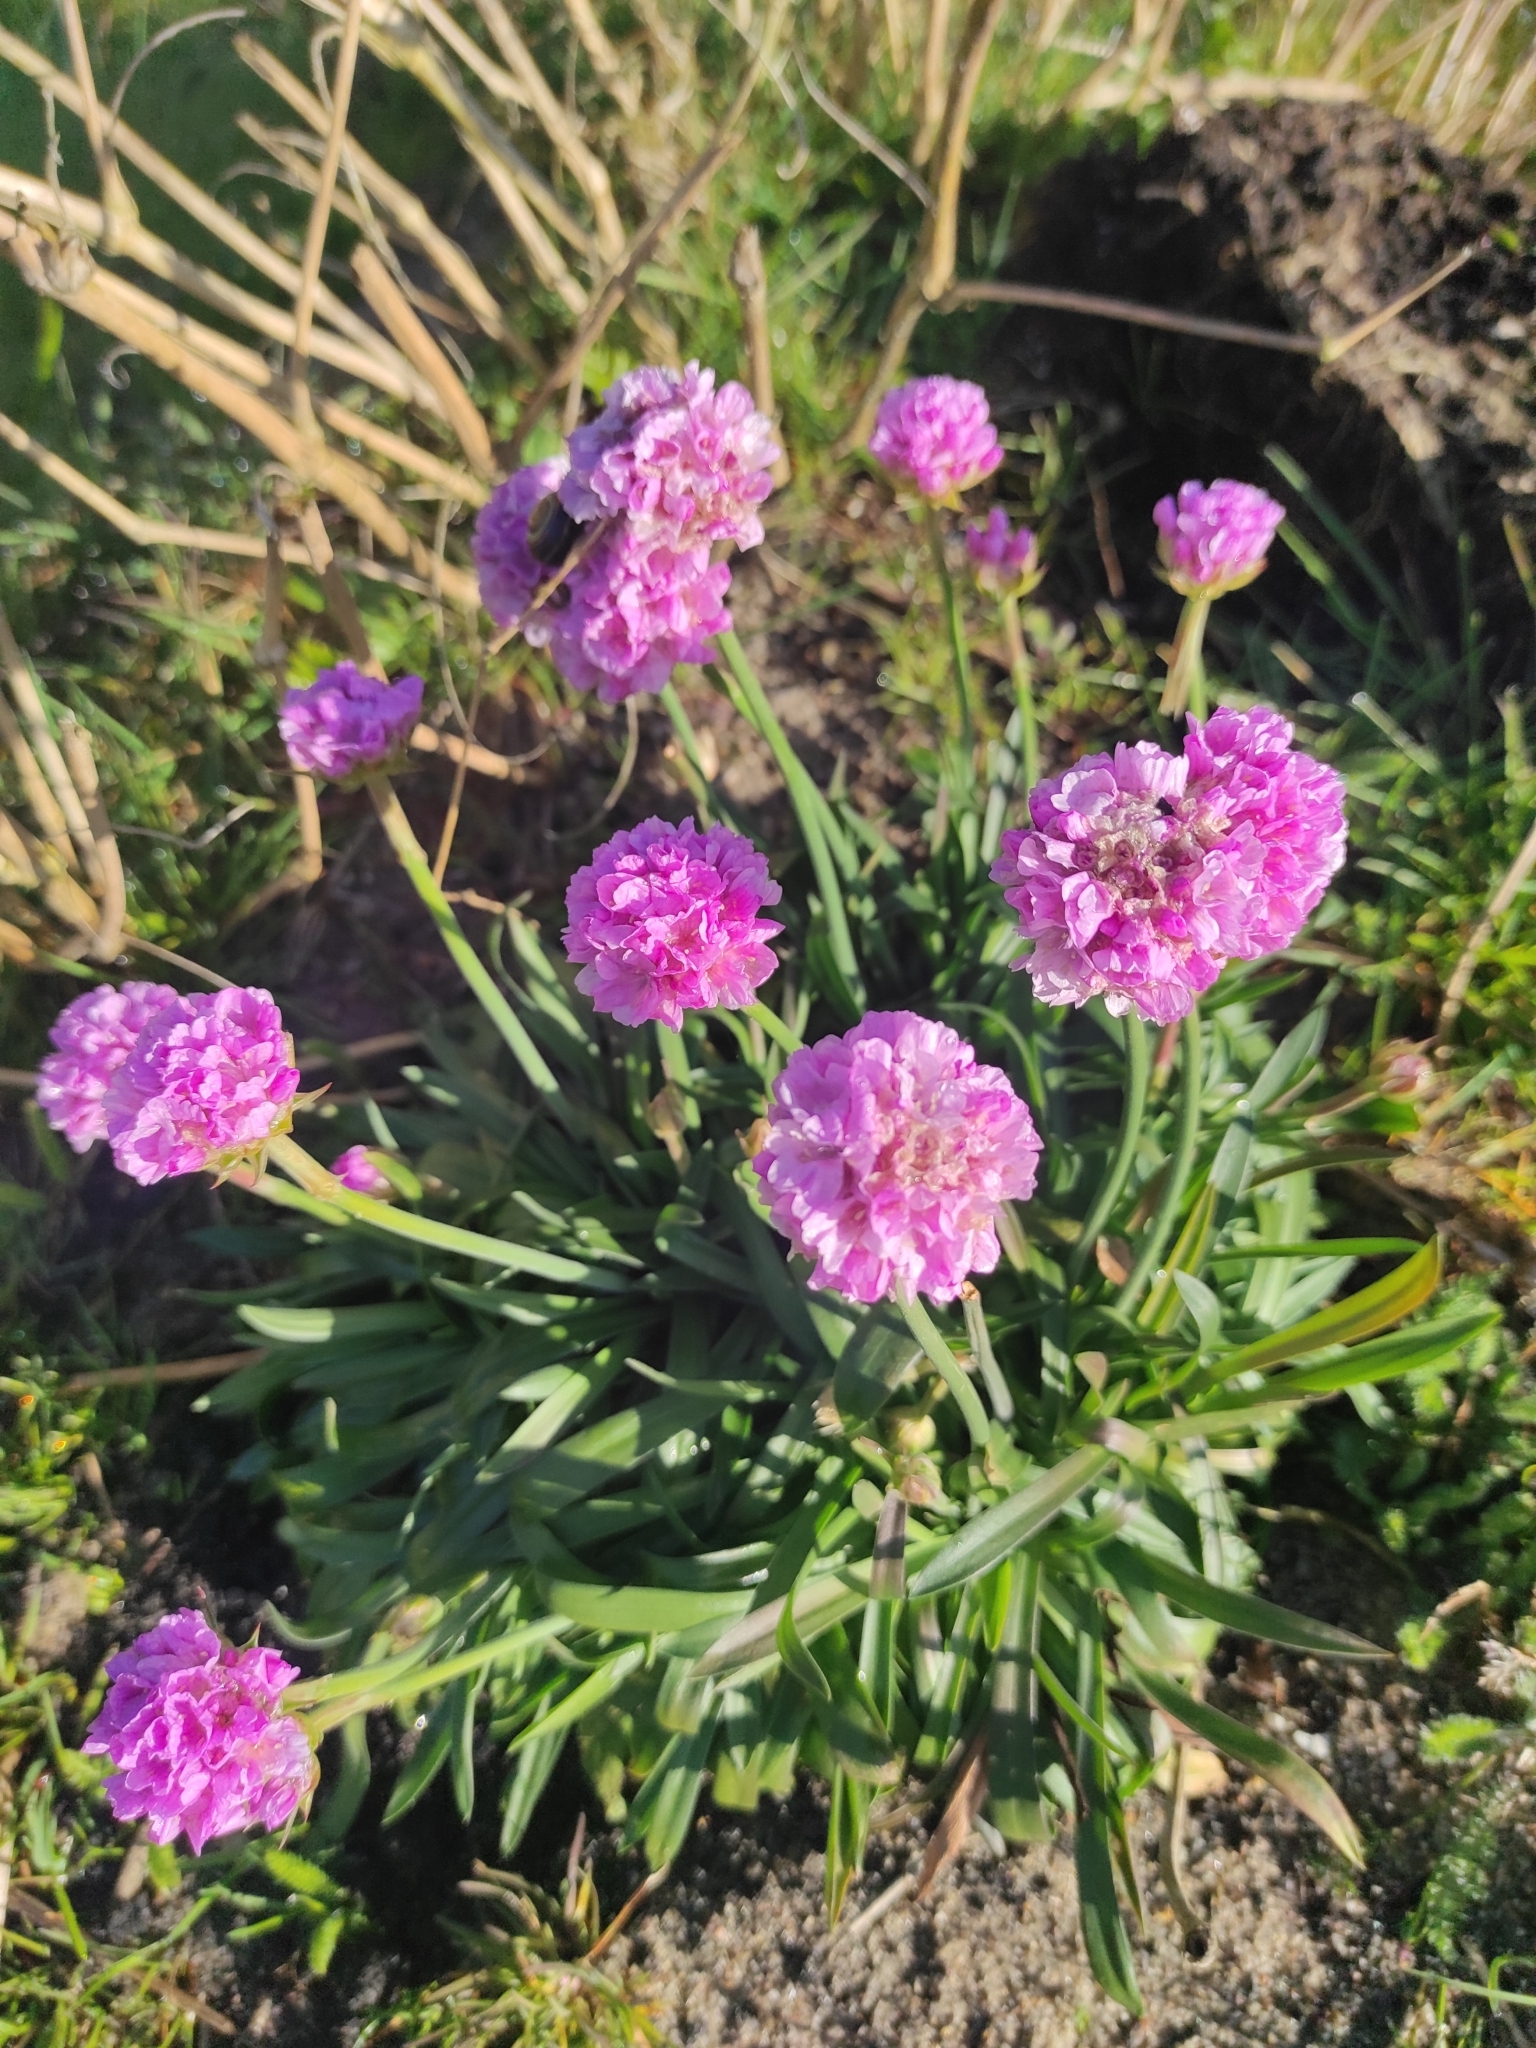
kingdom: Plantae
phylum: Tracheophyta
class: Magnoliopsida
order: Caryophyllales
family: Plumbaginaceae
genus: Armeria
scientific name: Armeria maritima
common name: Thrift
